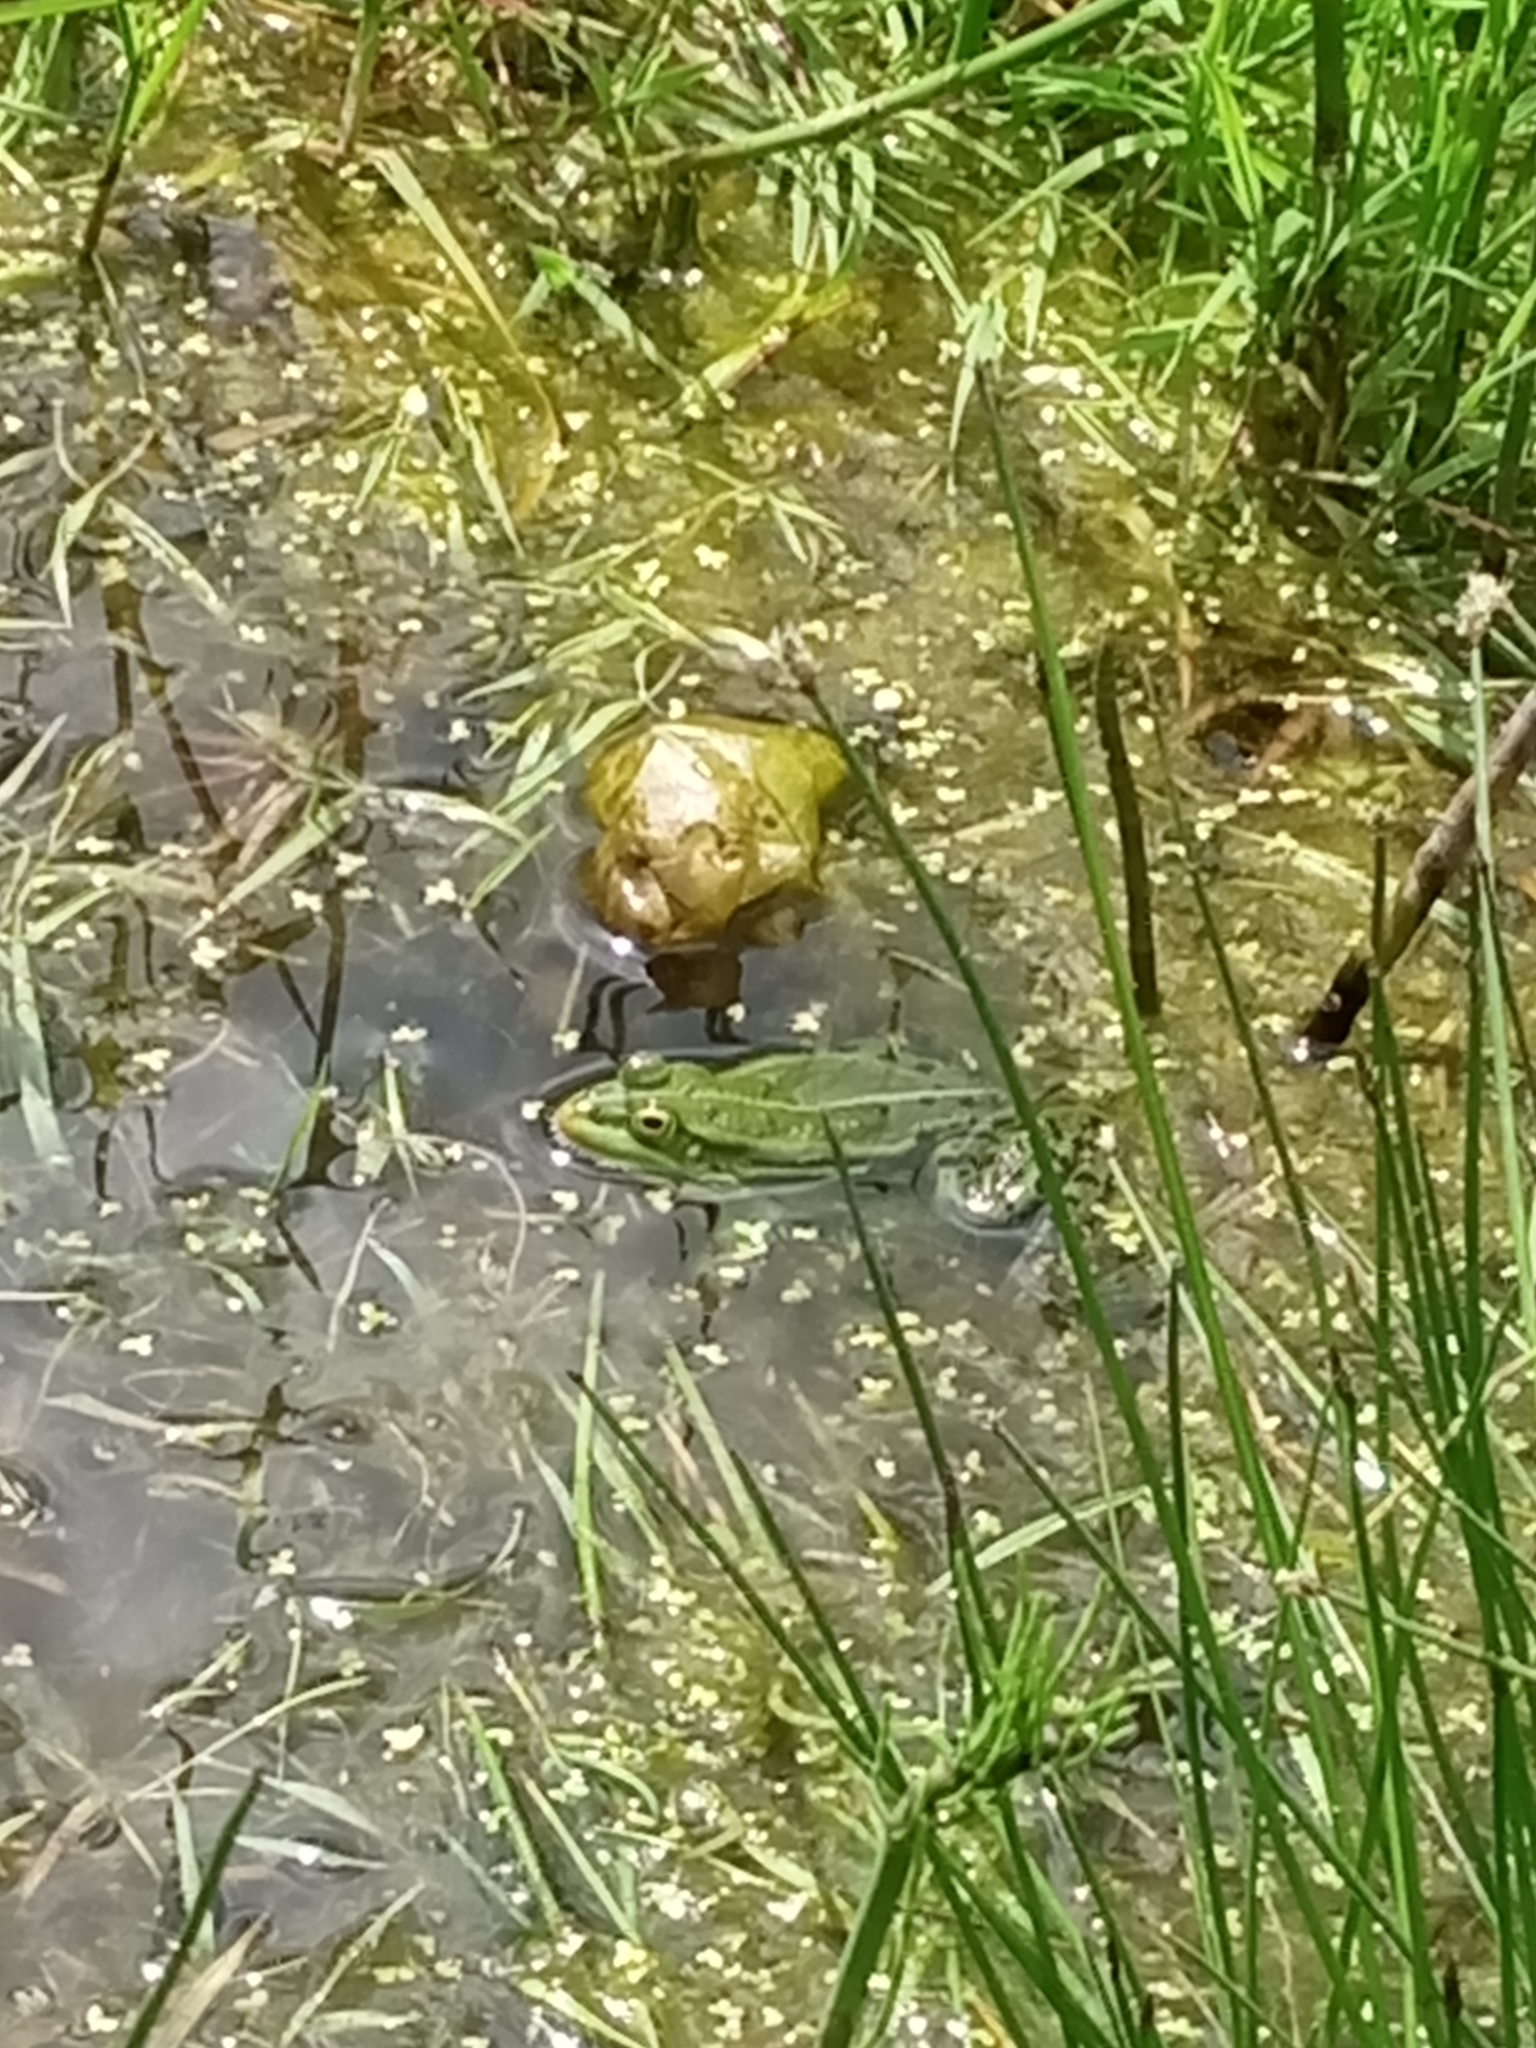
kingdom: Animalia
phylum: Chordata
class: Amphibia
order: Anura
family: Ranidae
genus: Pelophylax
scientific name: Pelophylax lessonae
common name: Pool frog
